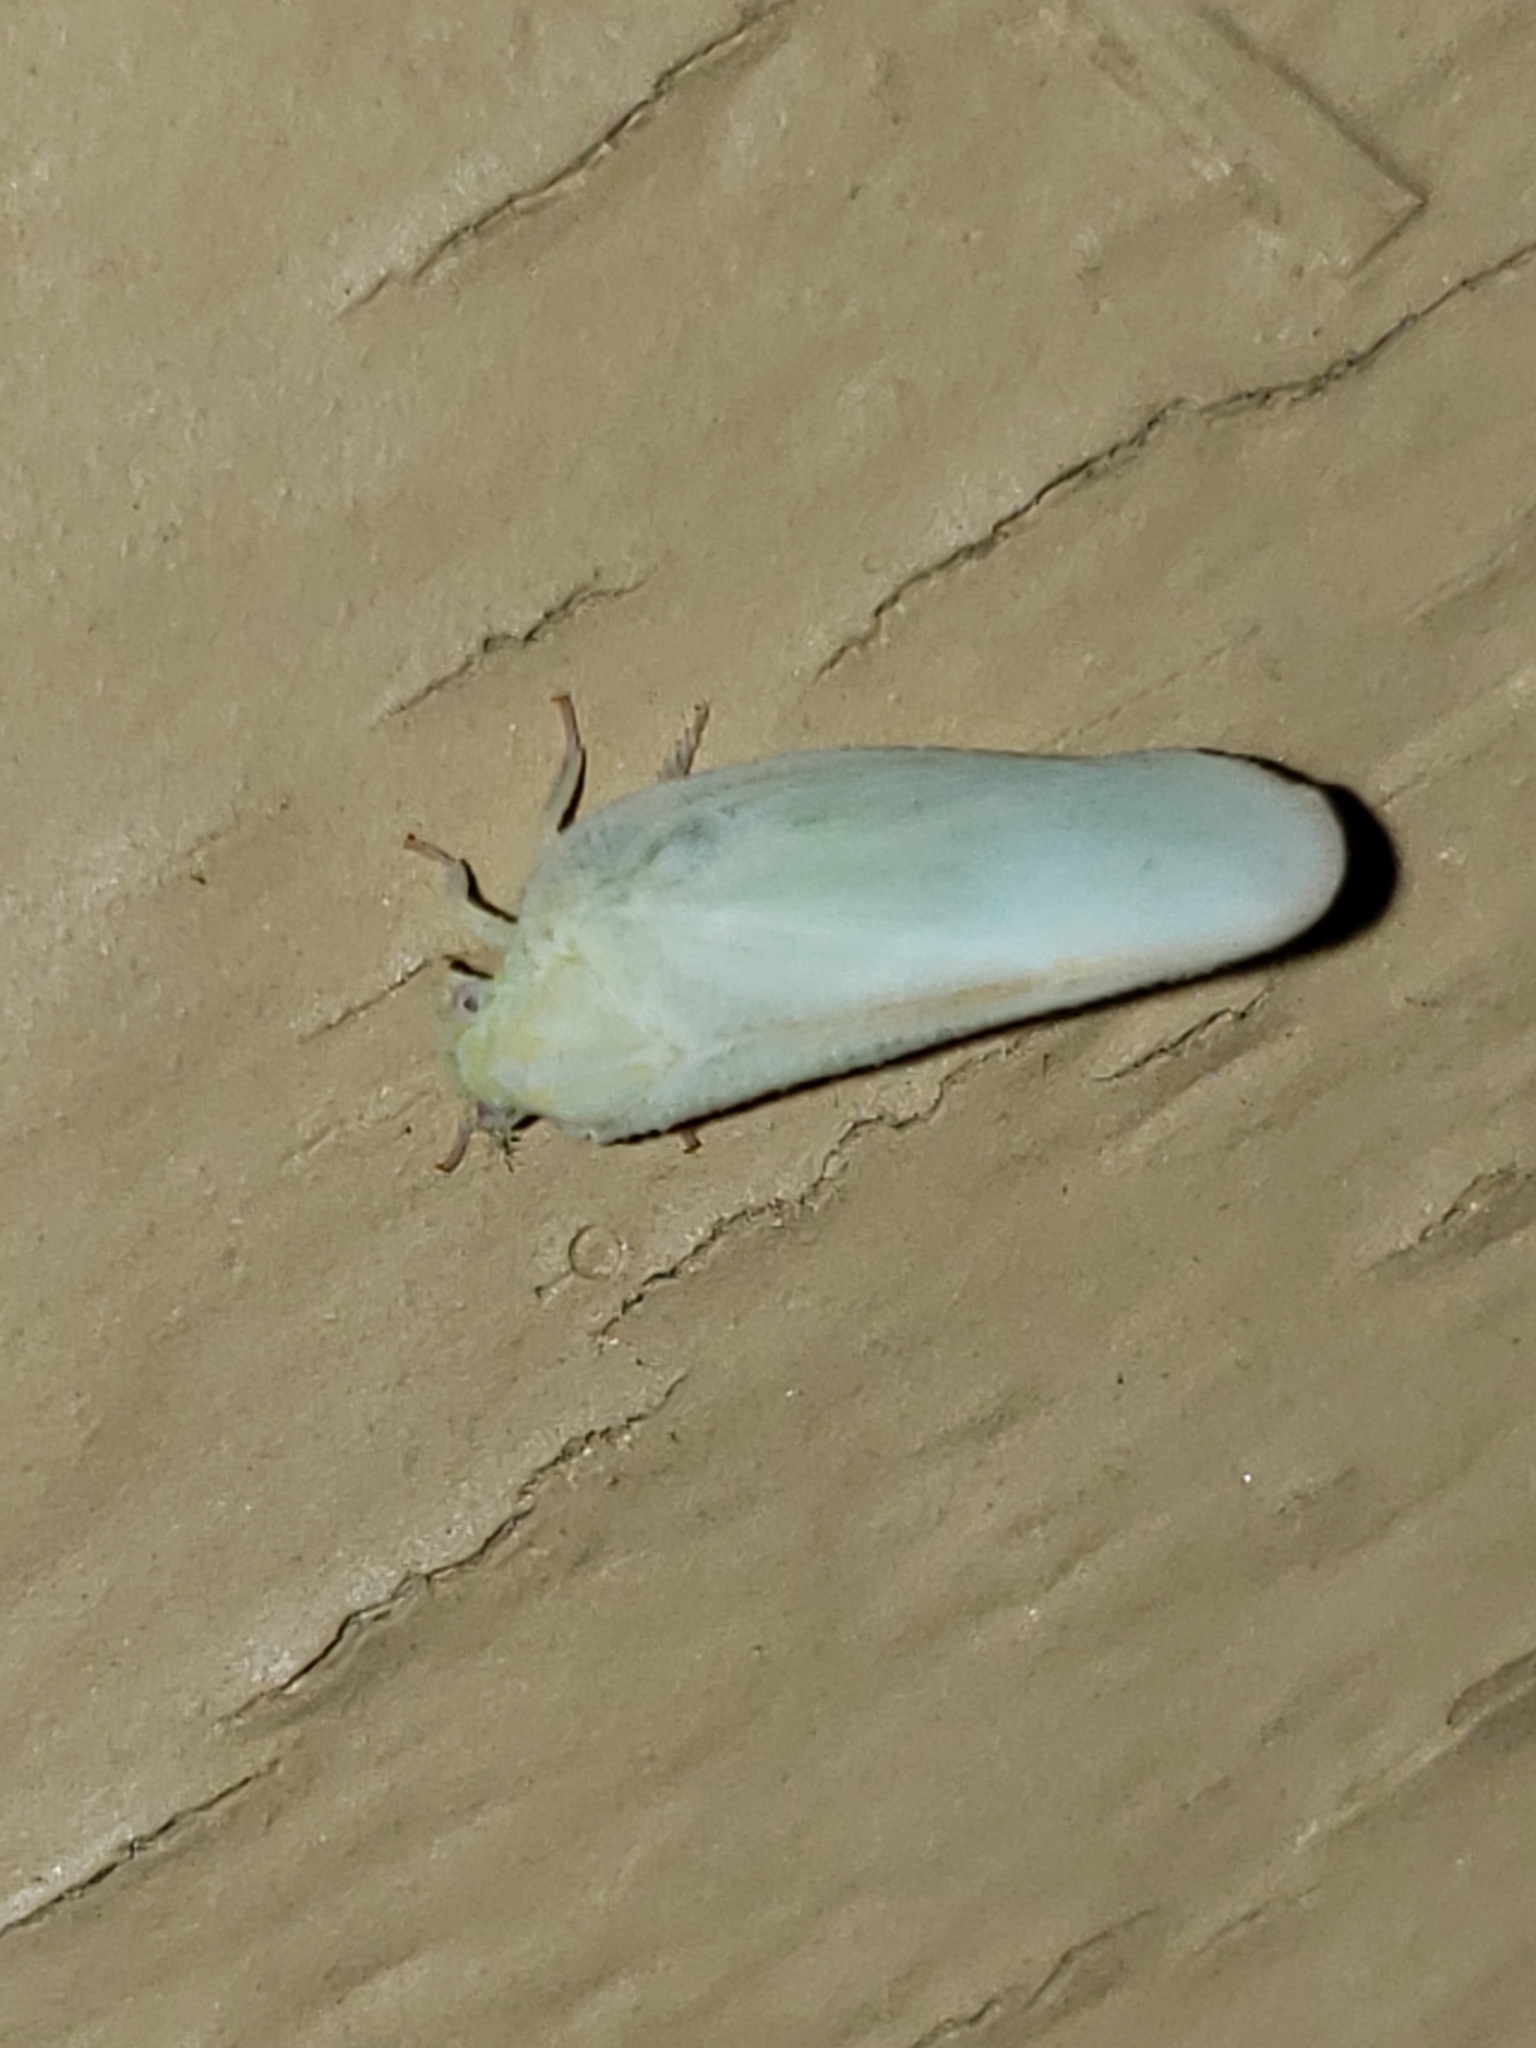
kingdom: Animalia
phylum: Arthropoda
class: Insecta
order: Hemiptera
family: Flatidae
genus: Ormenoides
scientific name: Ormenoides venusta
